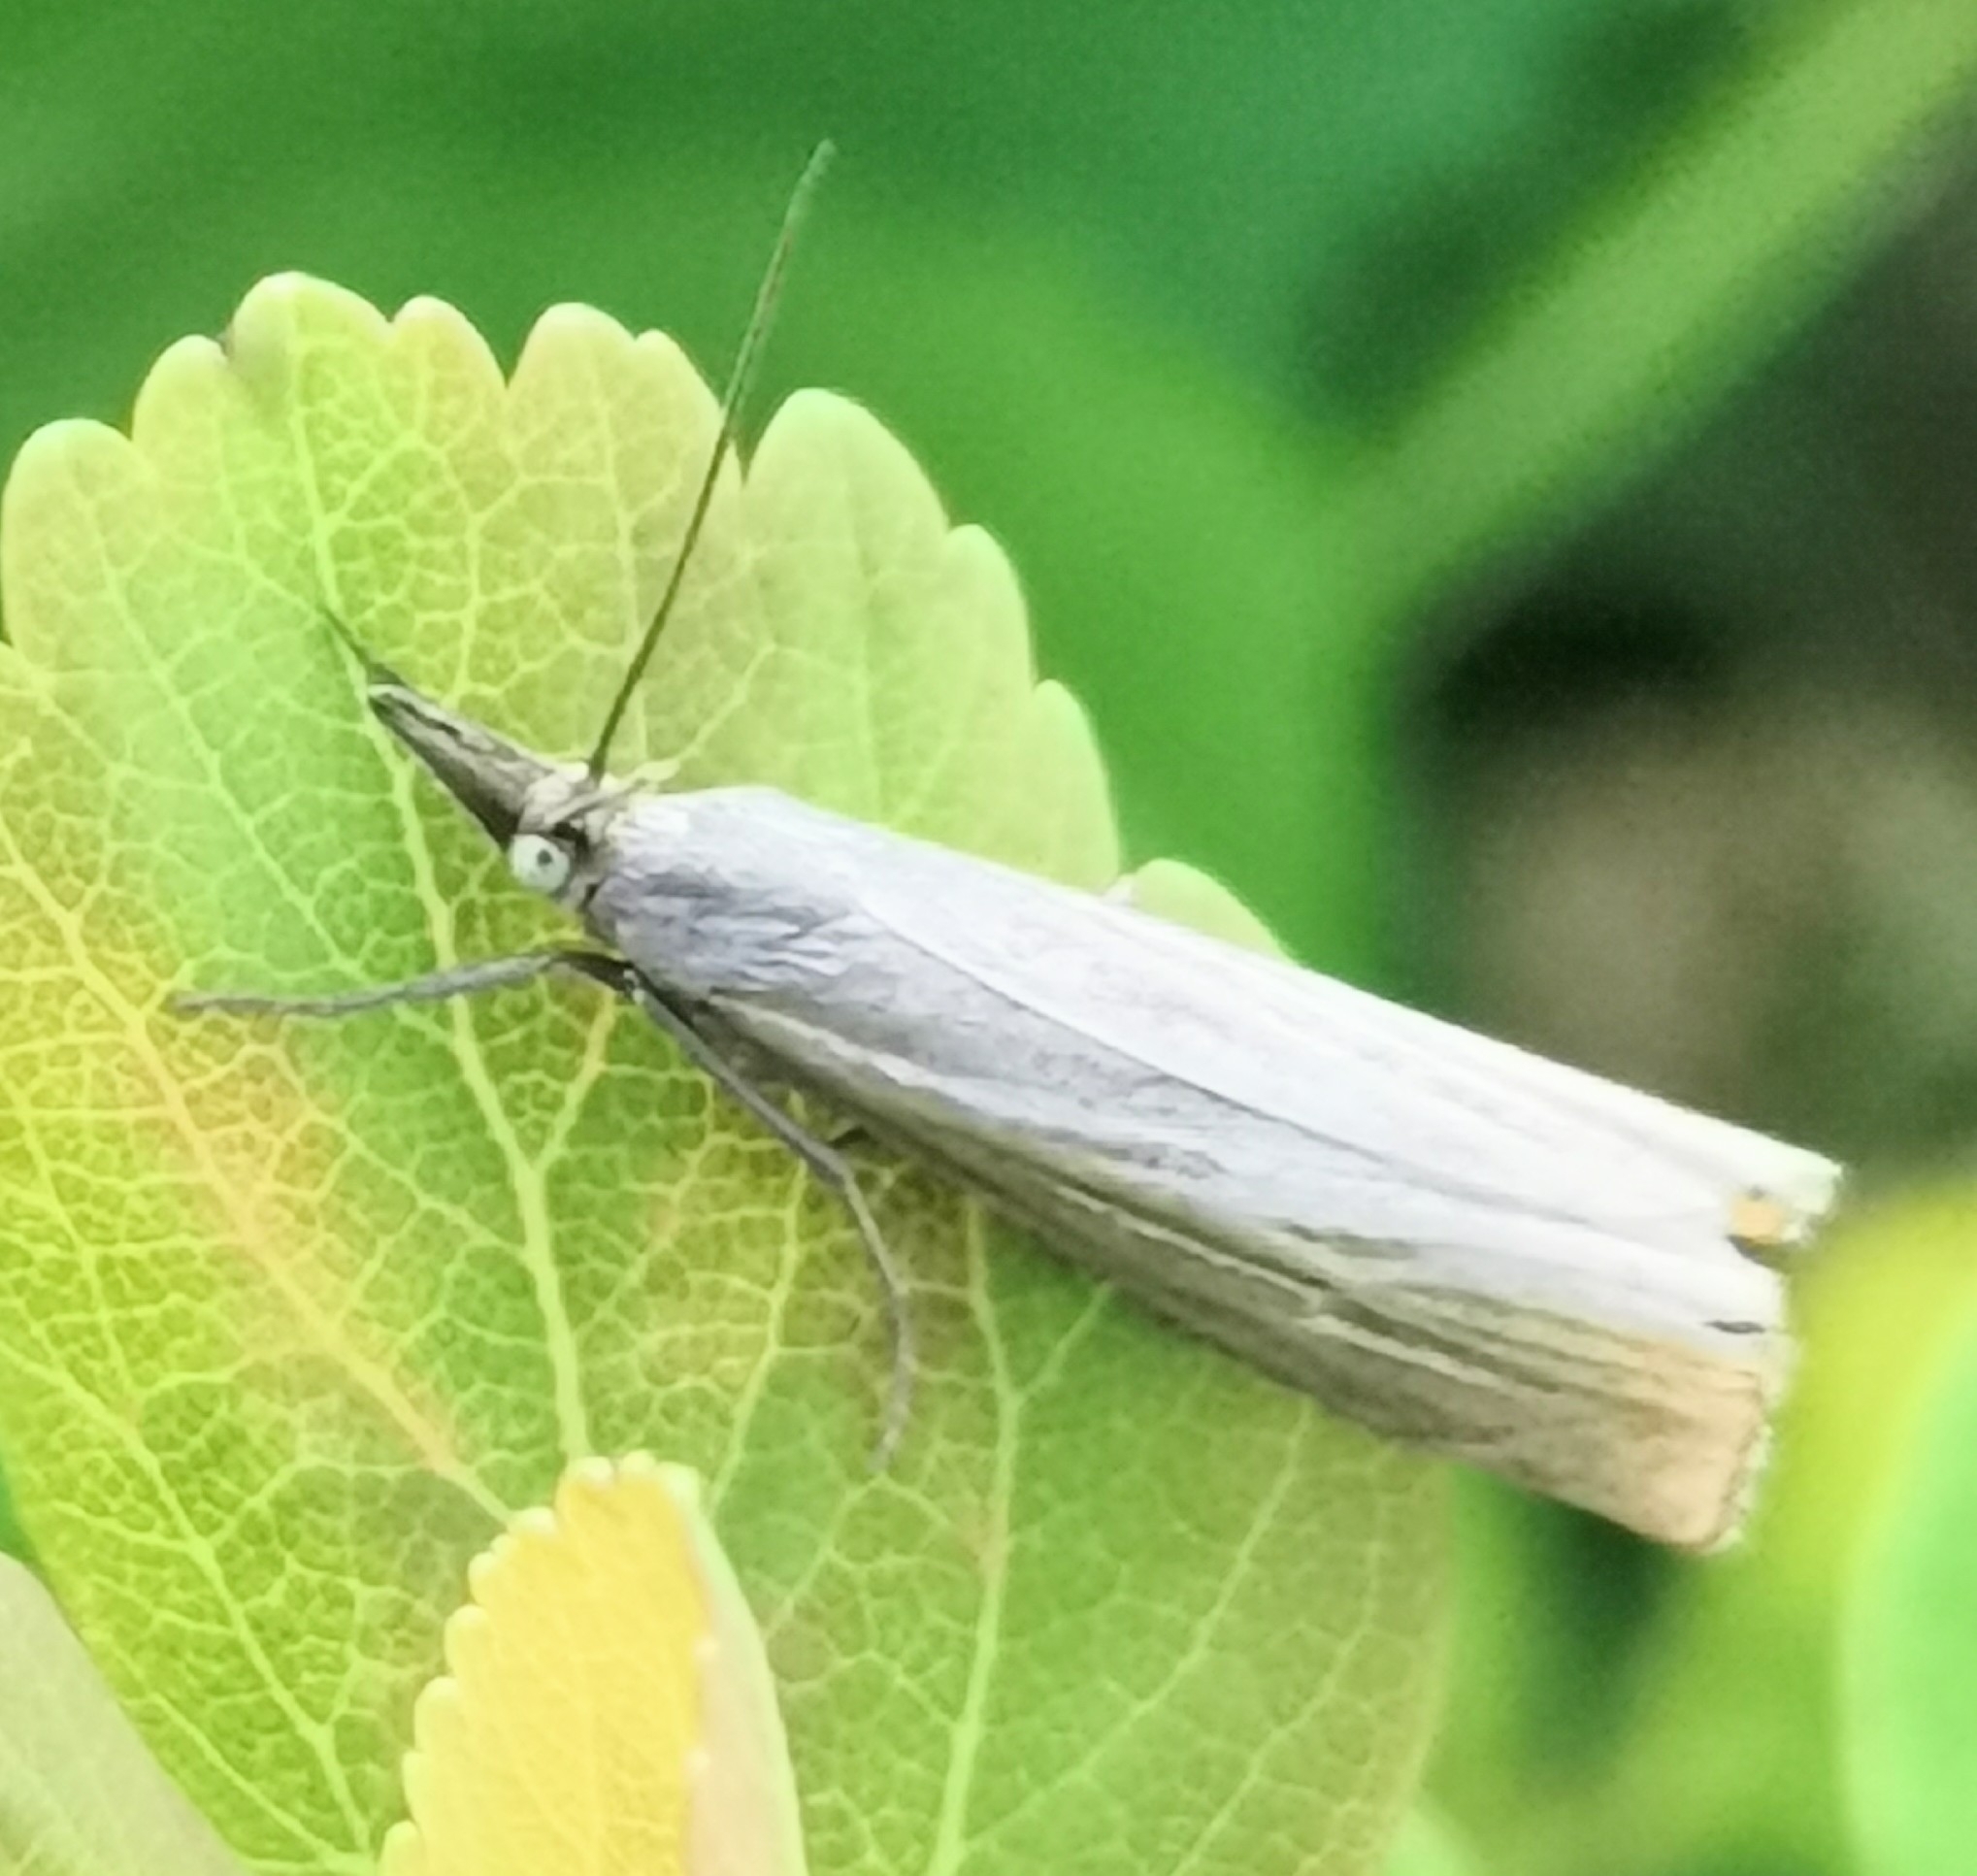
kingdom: Animalia
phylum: Arthropoda
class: Insecta
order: Lepidoptera
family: Crambidae
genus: Chrysoteuchia
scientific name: Chrysoteuchia culmella
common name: Garden grass-veneer
